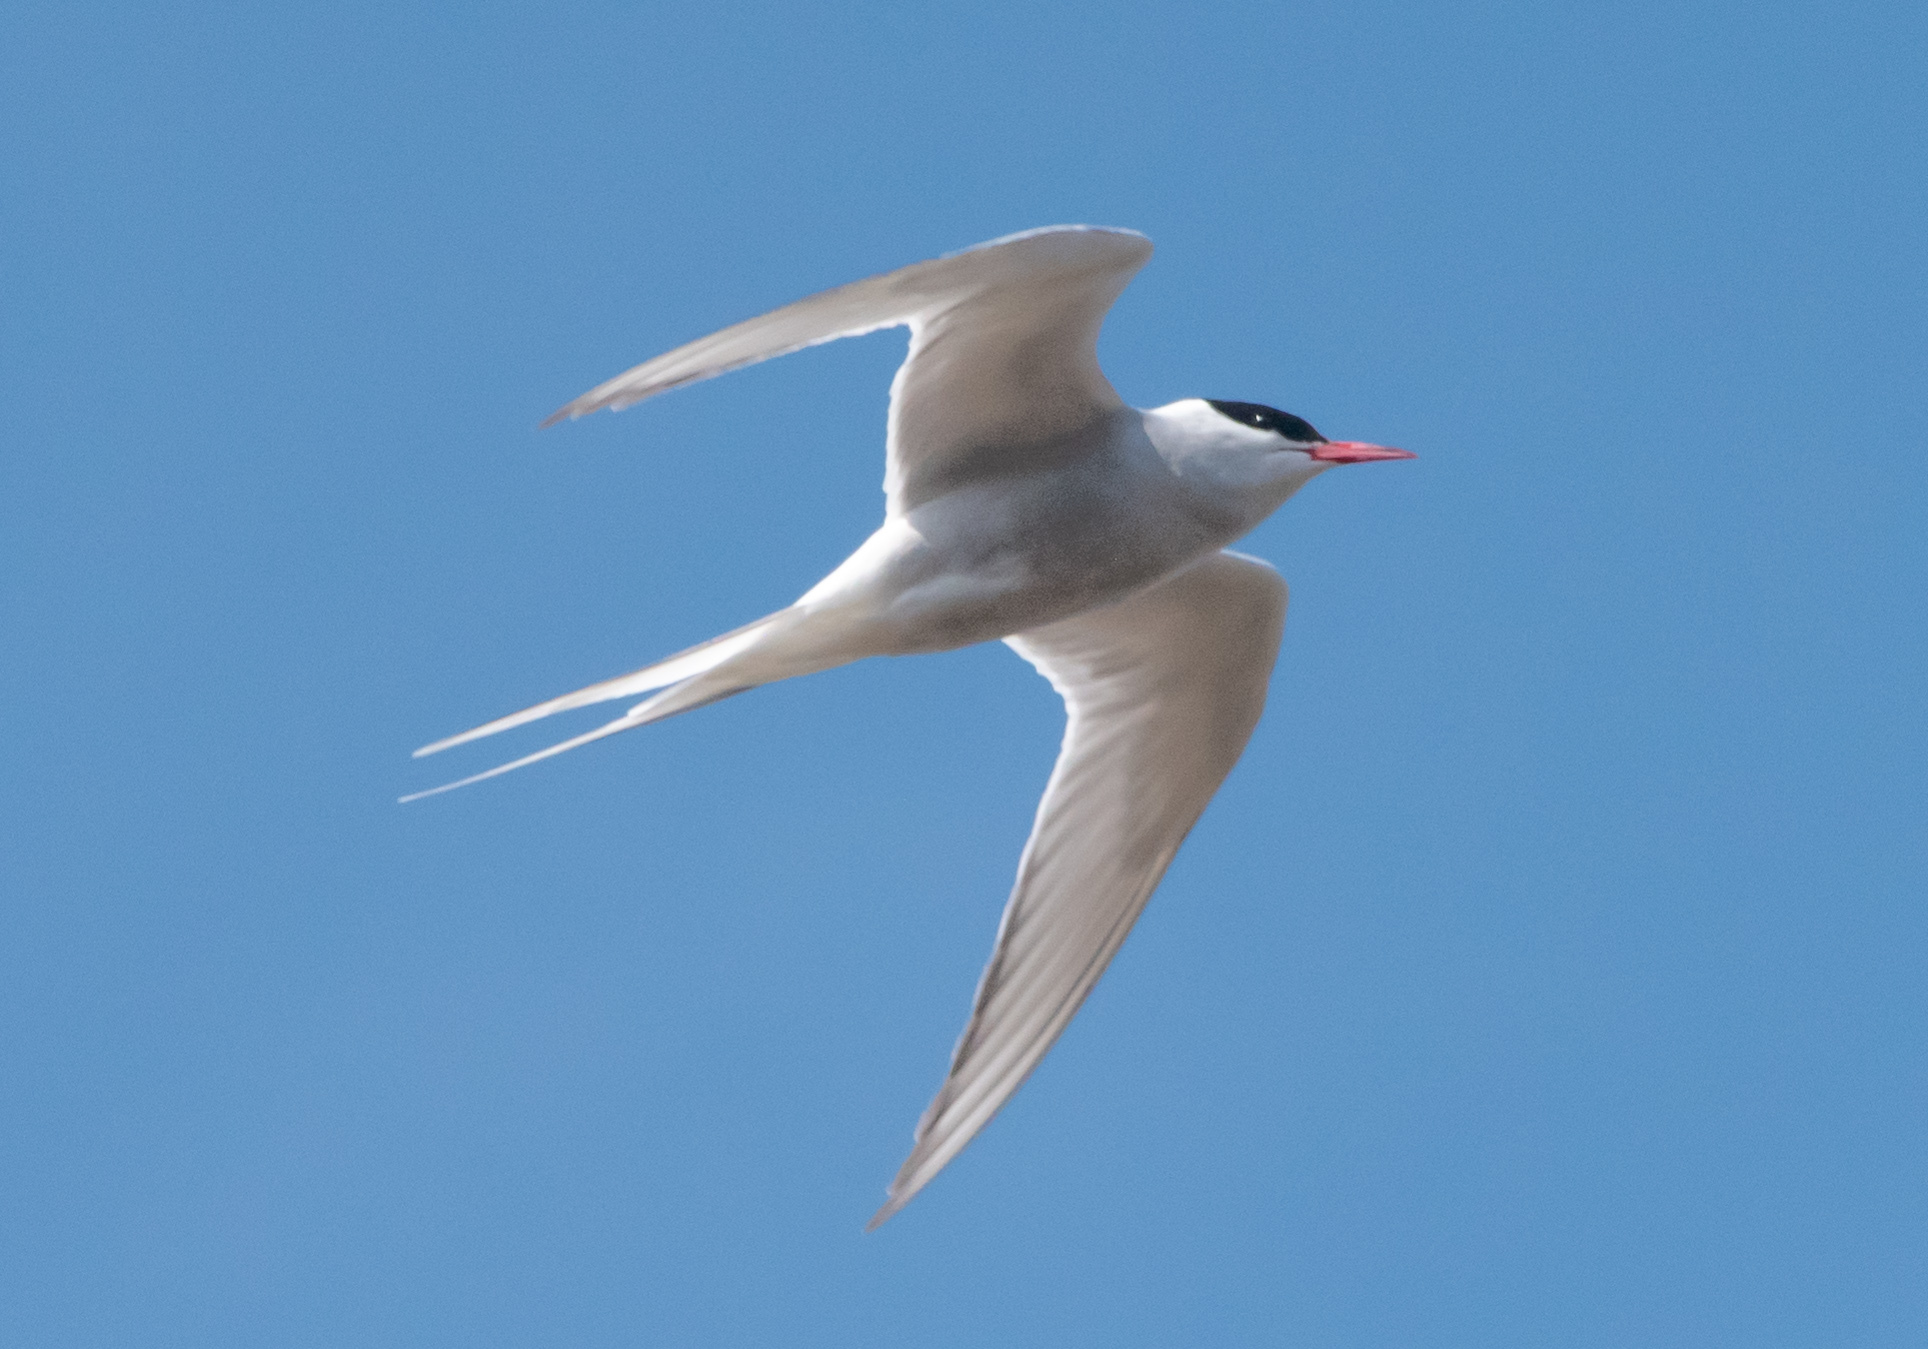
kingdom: Animalia
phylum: Chordata
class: Aves
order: Charadriiformes
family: Laridae
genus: Sterna
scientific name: Sterna paradisaea
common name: Arctic tern
